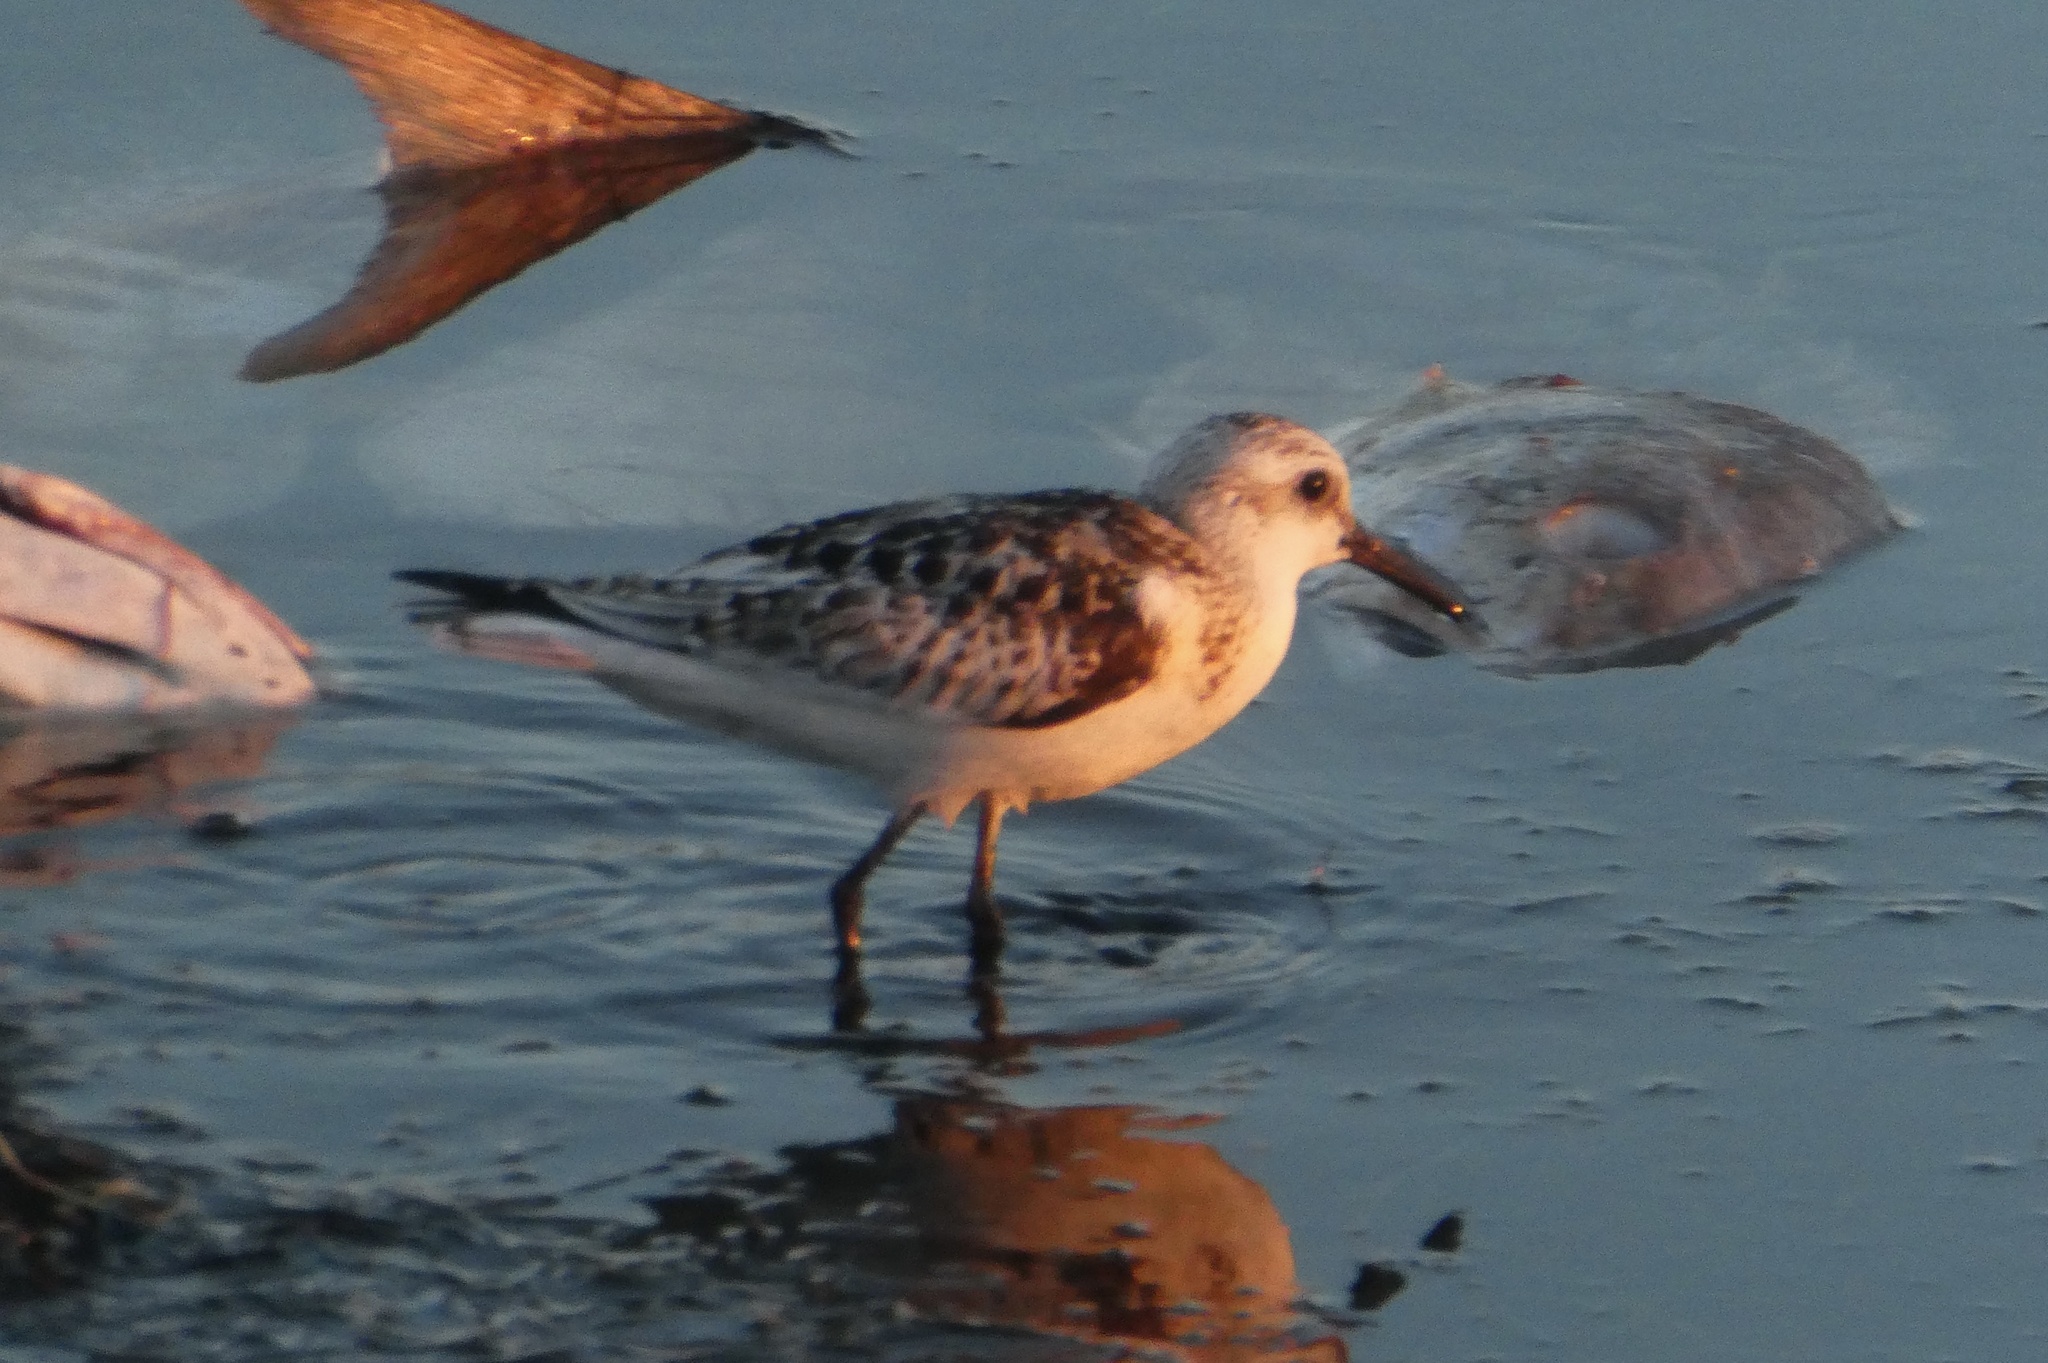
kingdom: Animalia
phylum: Chordata
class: Aves
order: Charadriiformes
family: Scolopacidae
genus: Calidris
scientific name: Calidris alba
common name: Sanderling
